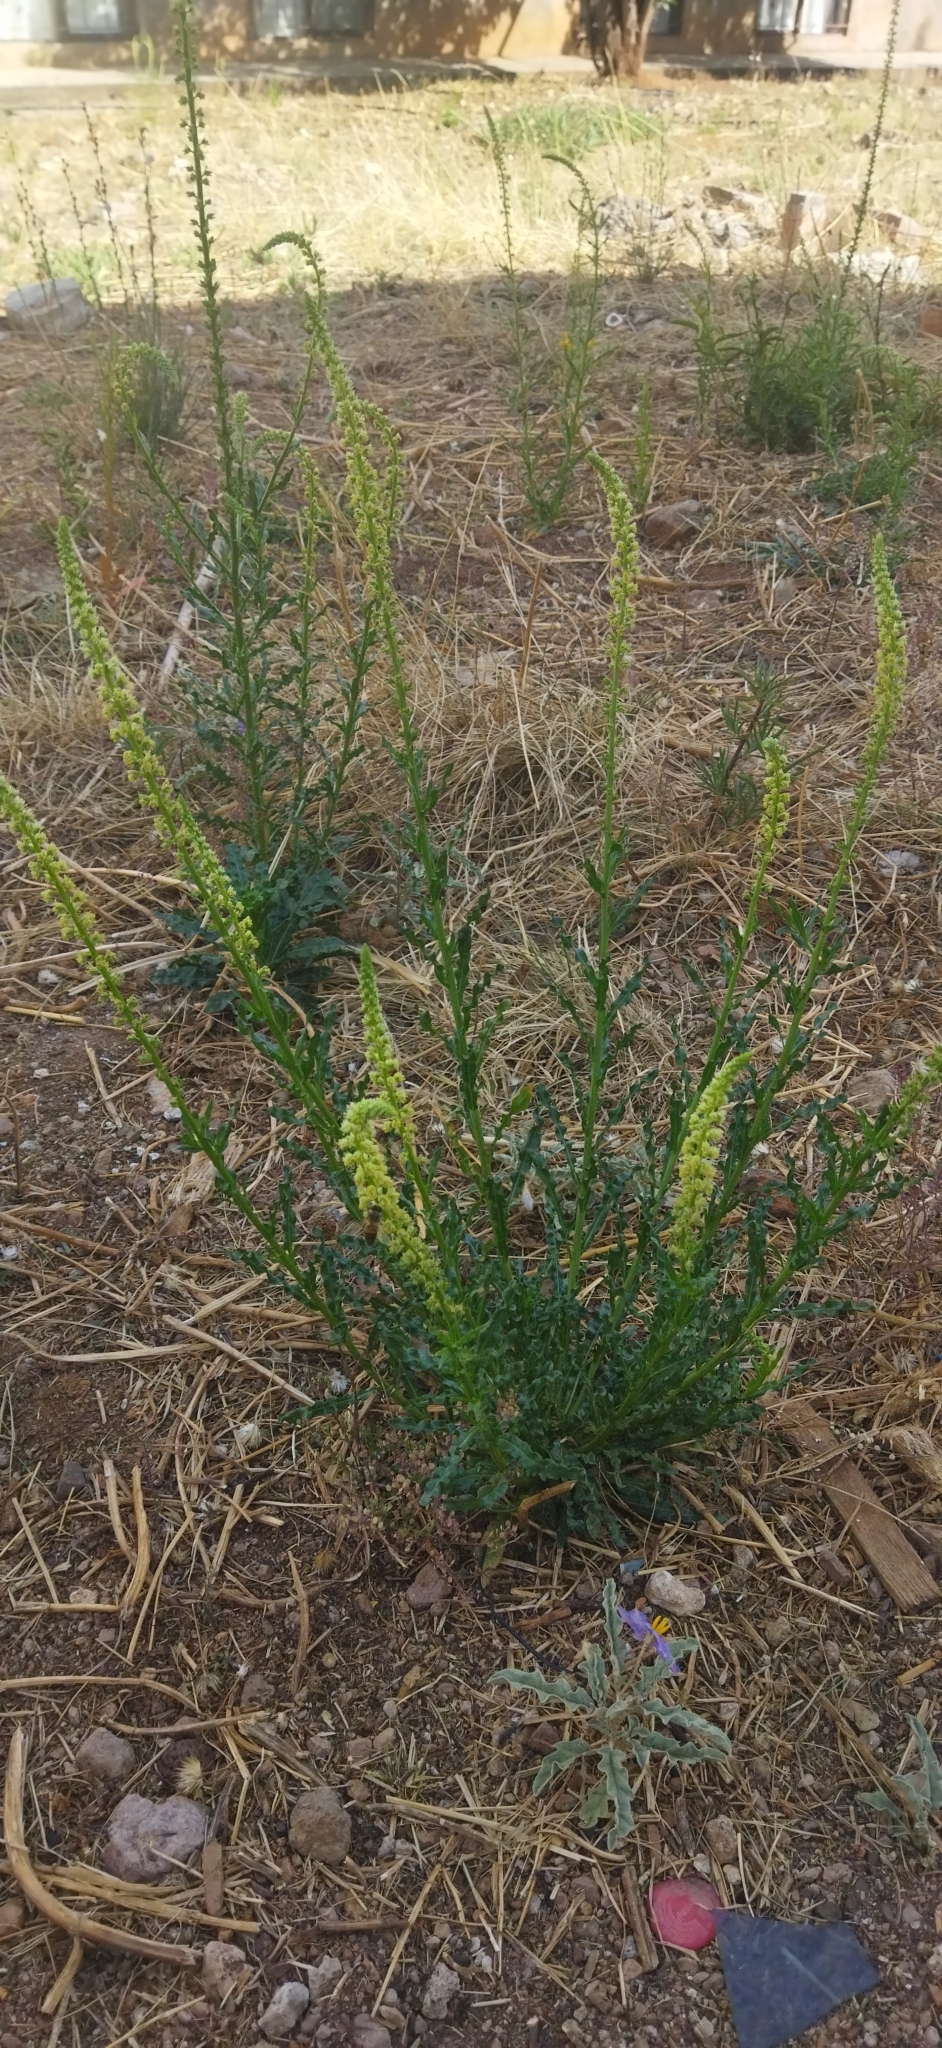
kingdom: Plantae
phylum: Tracheophyta
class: Magnoliopsida
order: Brassicales
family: Resedaceae
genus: Reseda
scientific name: Reseda luteola
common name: Weld
